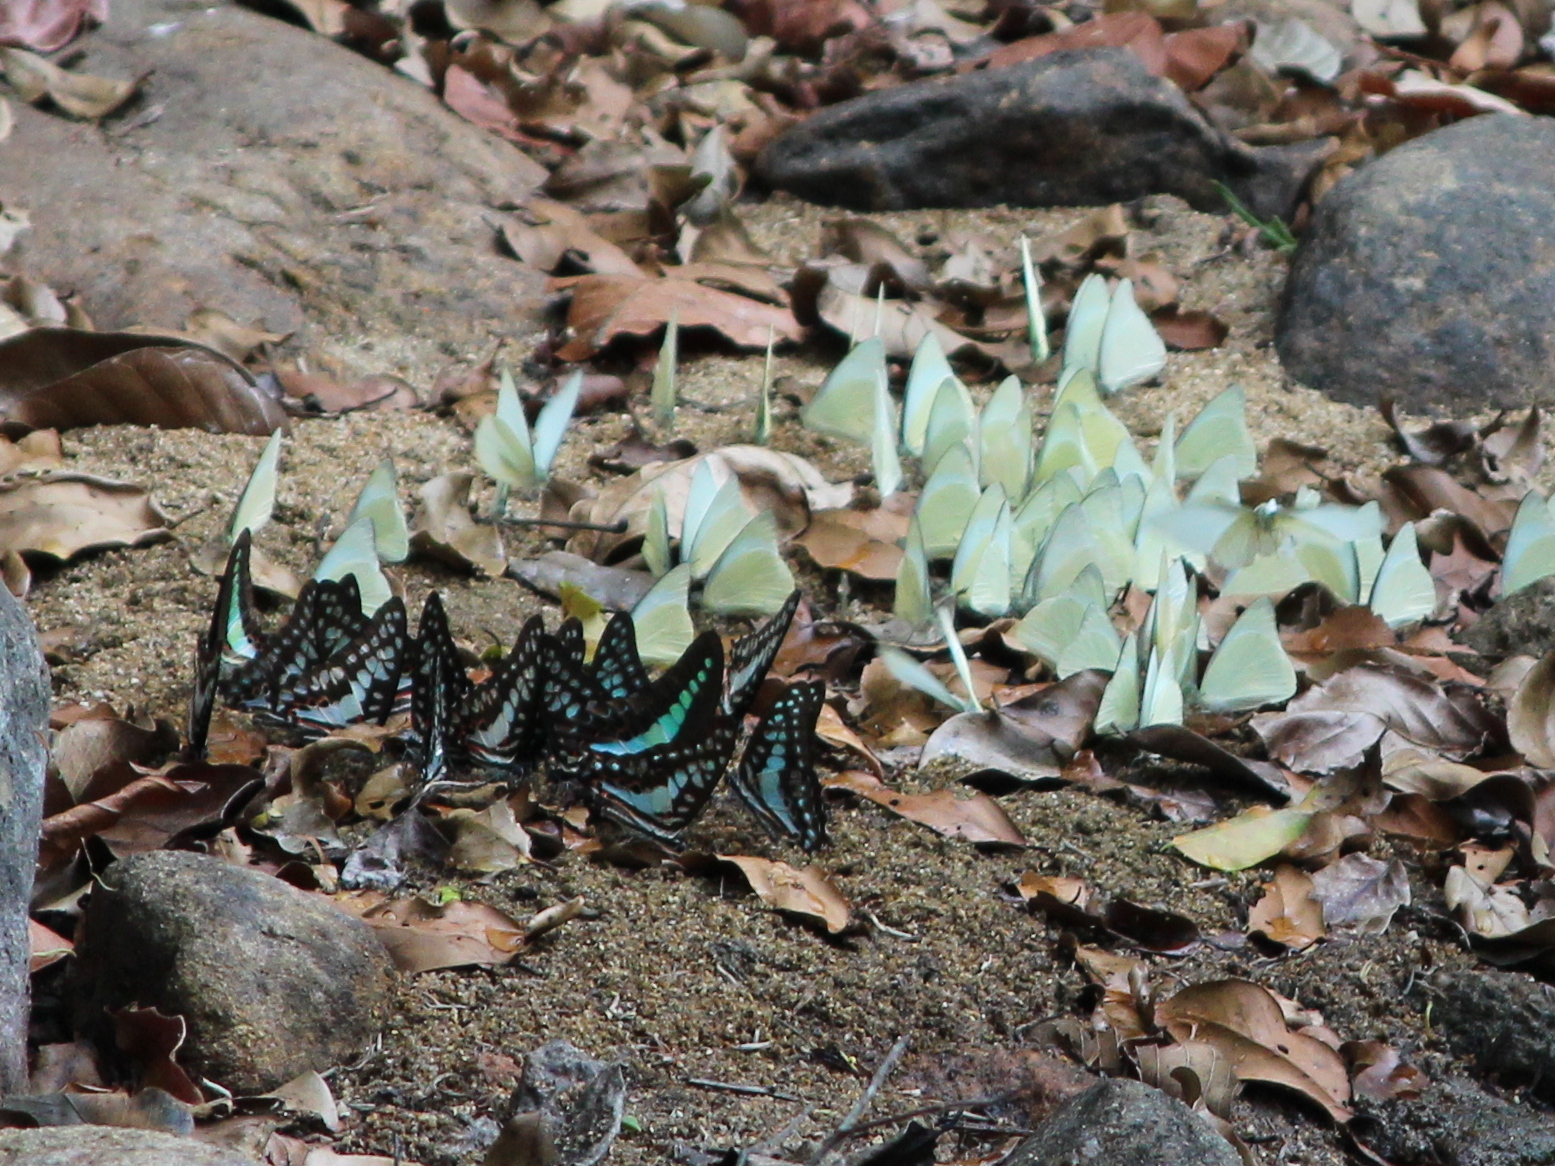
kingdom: Animalia
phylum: Arthropoda
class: Insecta
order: Lepidoptera
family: Papilionidae
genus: Graphium
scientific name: Graphium doson
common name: Common jay
